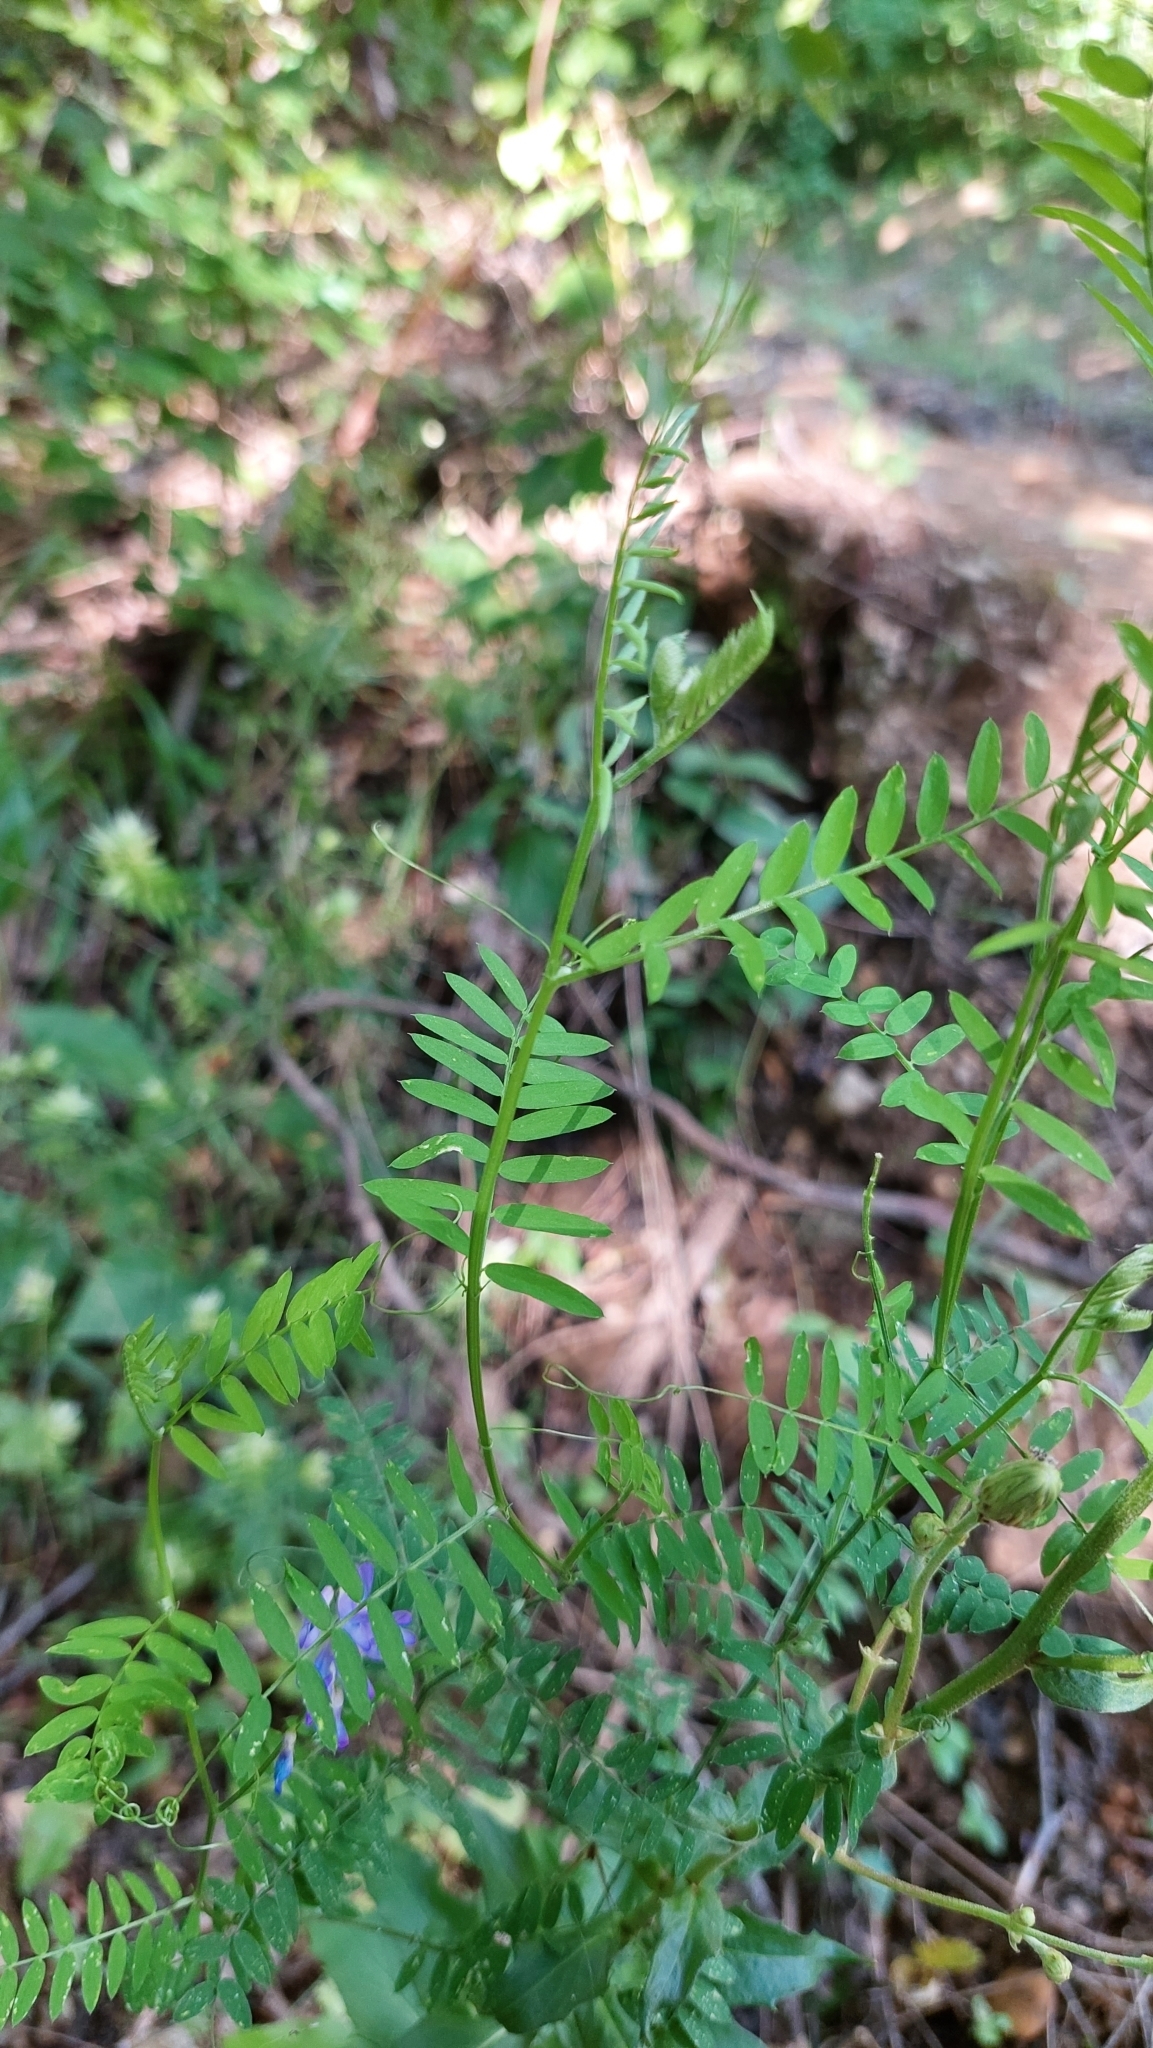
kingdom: Plantae
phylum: Tracheophyta
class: Magnoliopsida
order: Fabales
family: Fabaceae
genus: Vicia
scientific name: Vicia cracca
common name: Bird vetch
